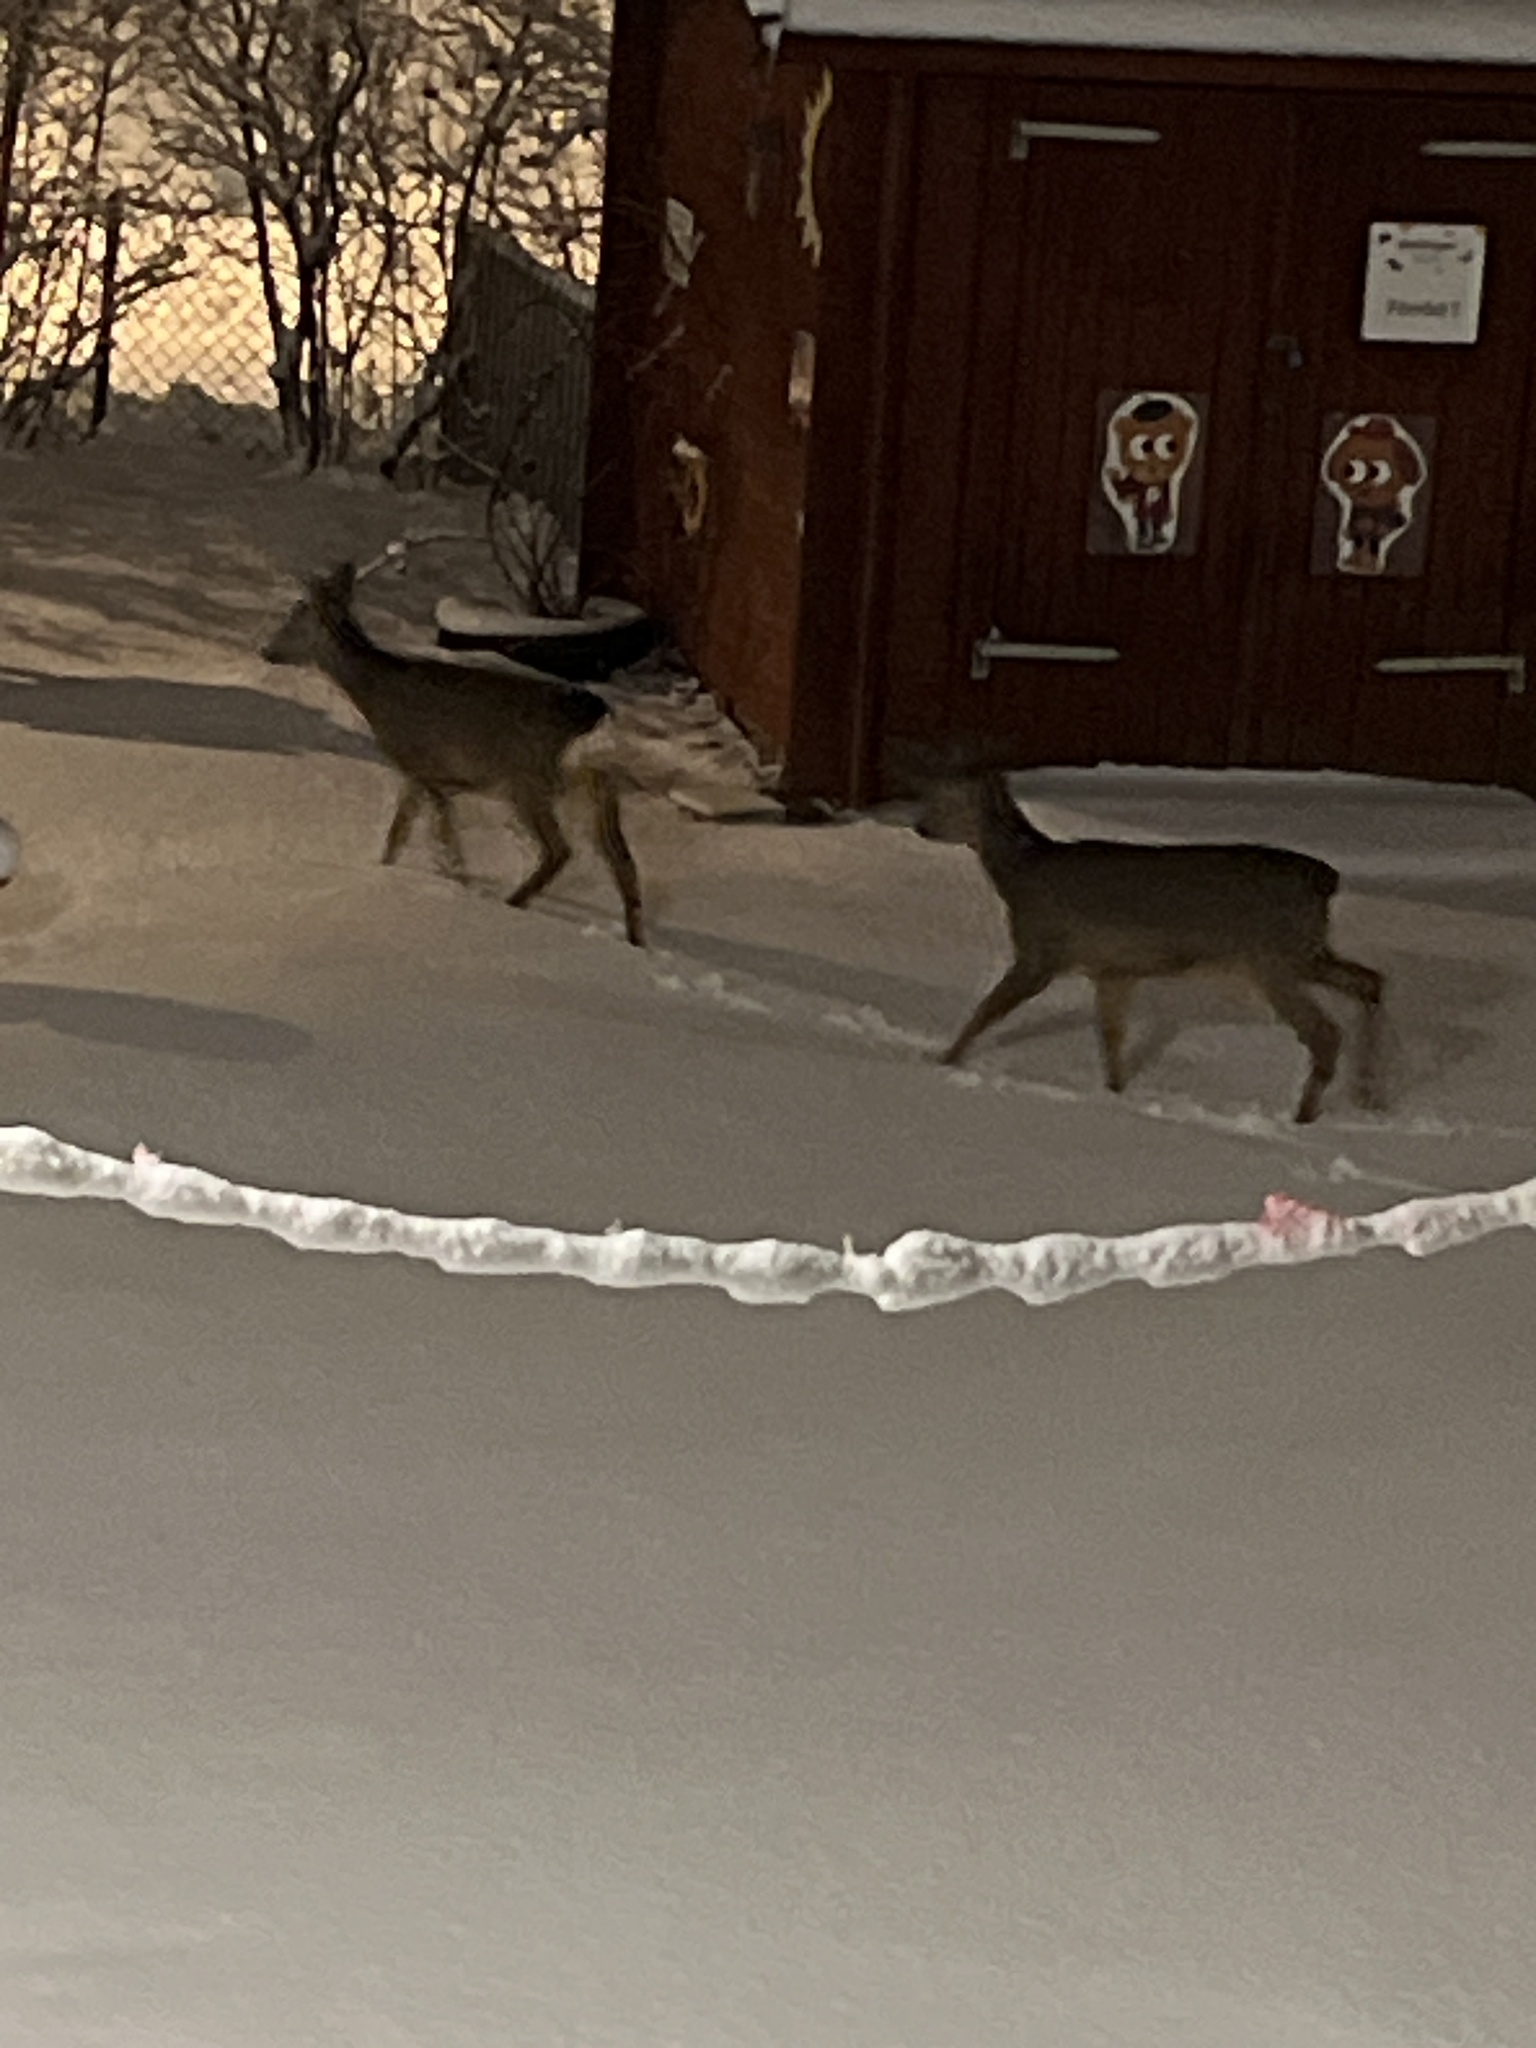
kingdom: Animalia
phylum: Chordata
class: Mammalia
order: Artiodactyla
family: Cervidae
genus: Capreolus
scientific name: Capreolus capreolus
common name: Western roe deer
